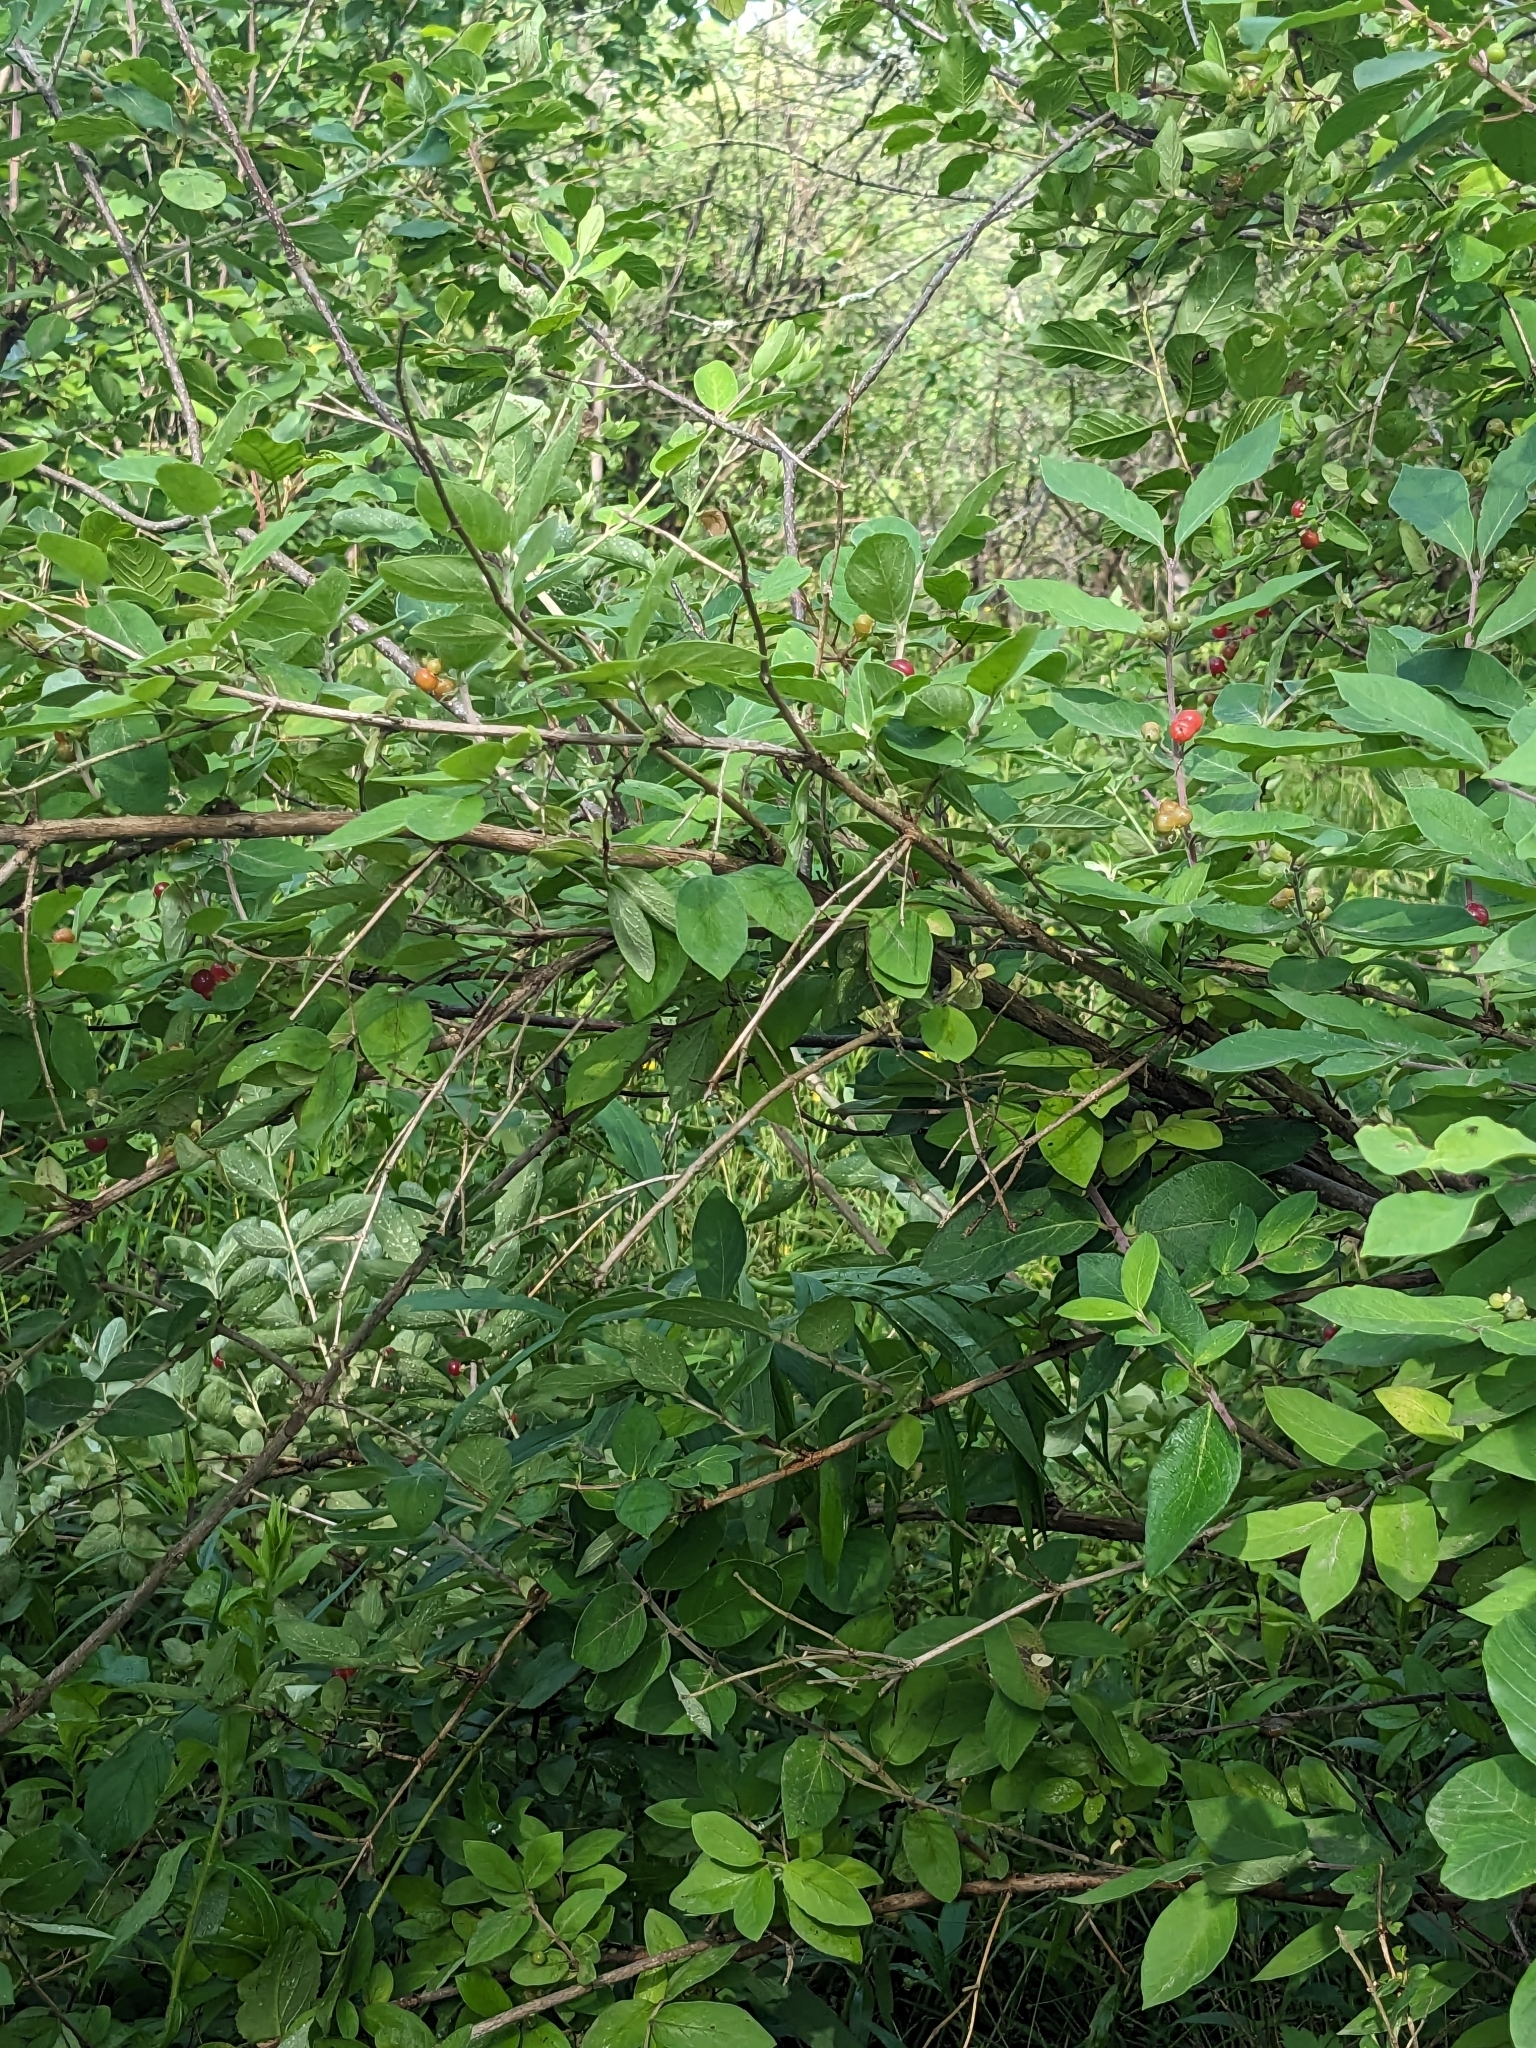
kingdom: Plantae
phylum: Tracheophyta
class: Magnoliopsida
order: Dipsacales
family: Caprifoliaceae
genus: Lonicera
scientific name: Lonicera
